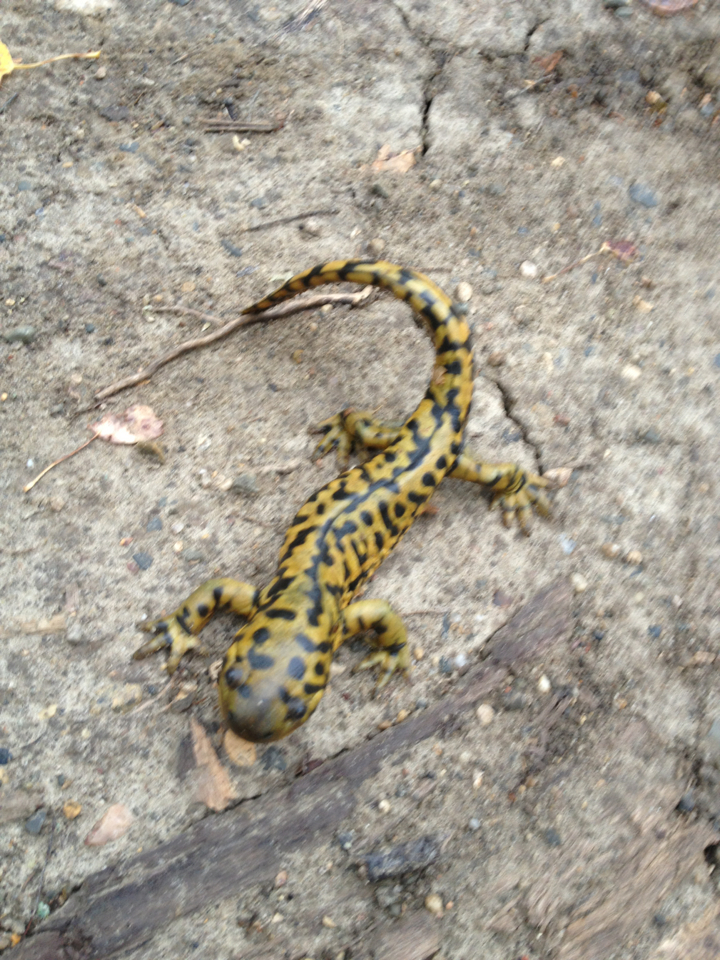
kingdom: Animalia
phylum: Chordata
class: Amphibia
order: Caudata
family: Ambystomatidae
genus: Ambystoma
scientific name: Ambystoma mavortium
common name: Western tiger salamander
